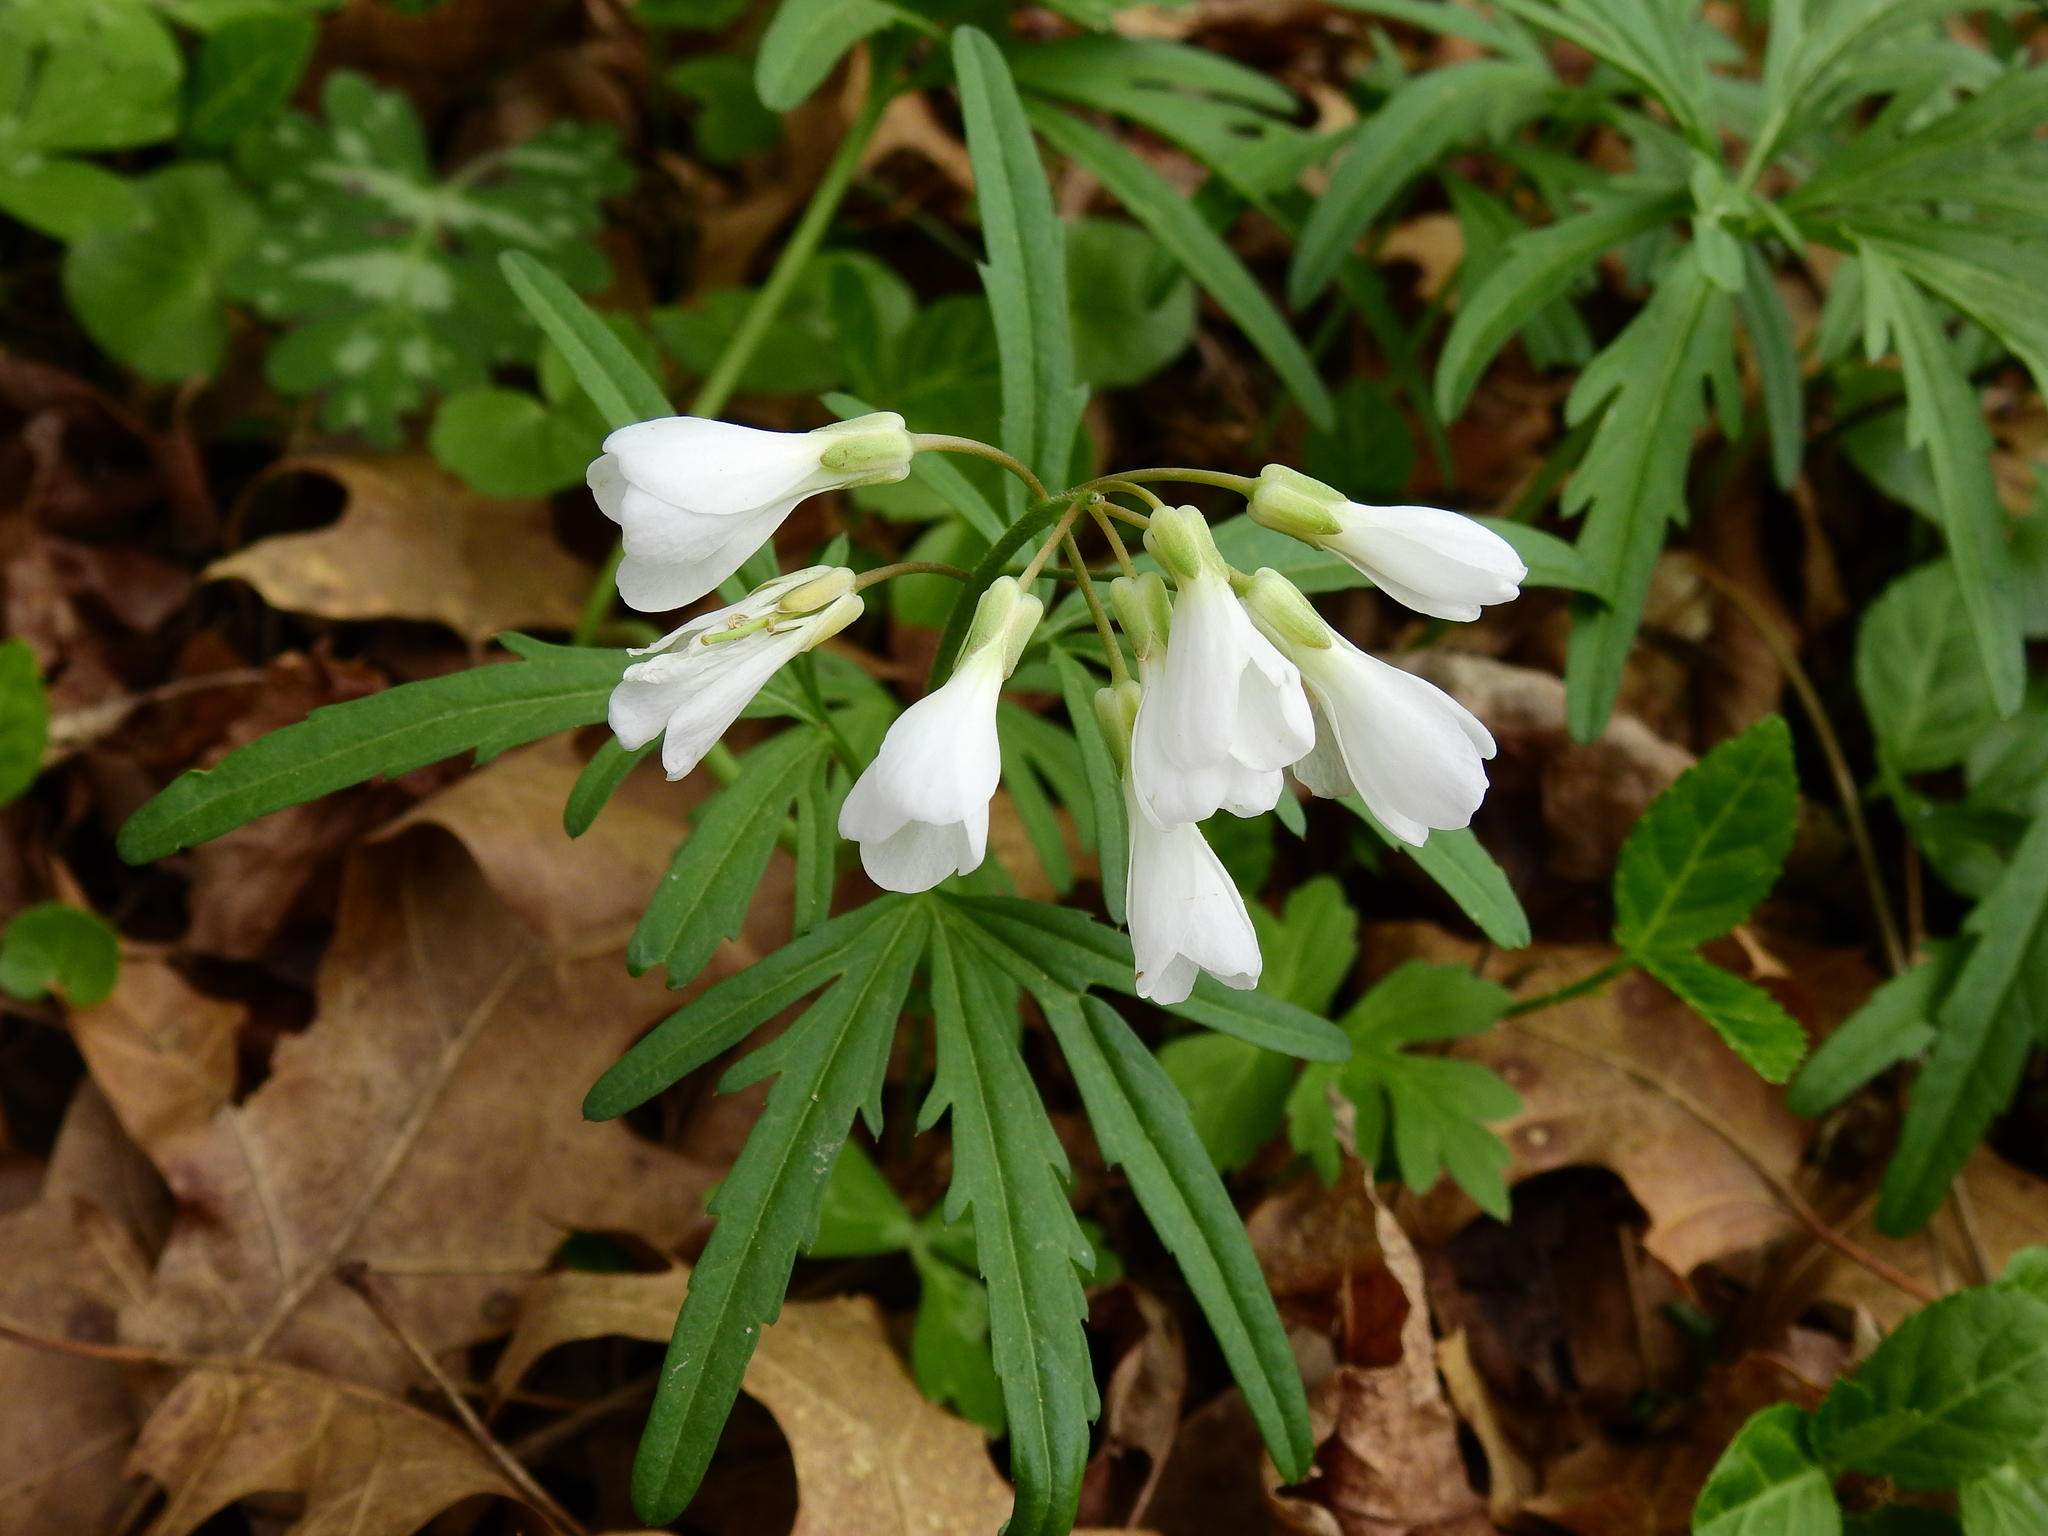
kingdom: Plantae
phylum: Tracheophyta
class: Magnoliopsida
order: Brassicales
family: Brassicaceae
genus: Cardamine
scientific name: Cardamine concatenata
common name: Cut-leaf toothcup
